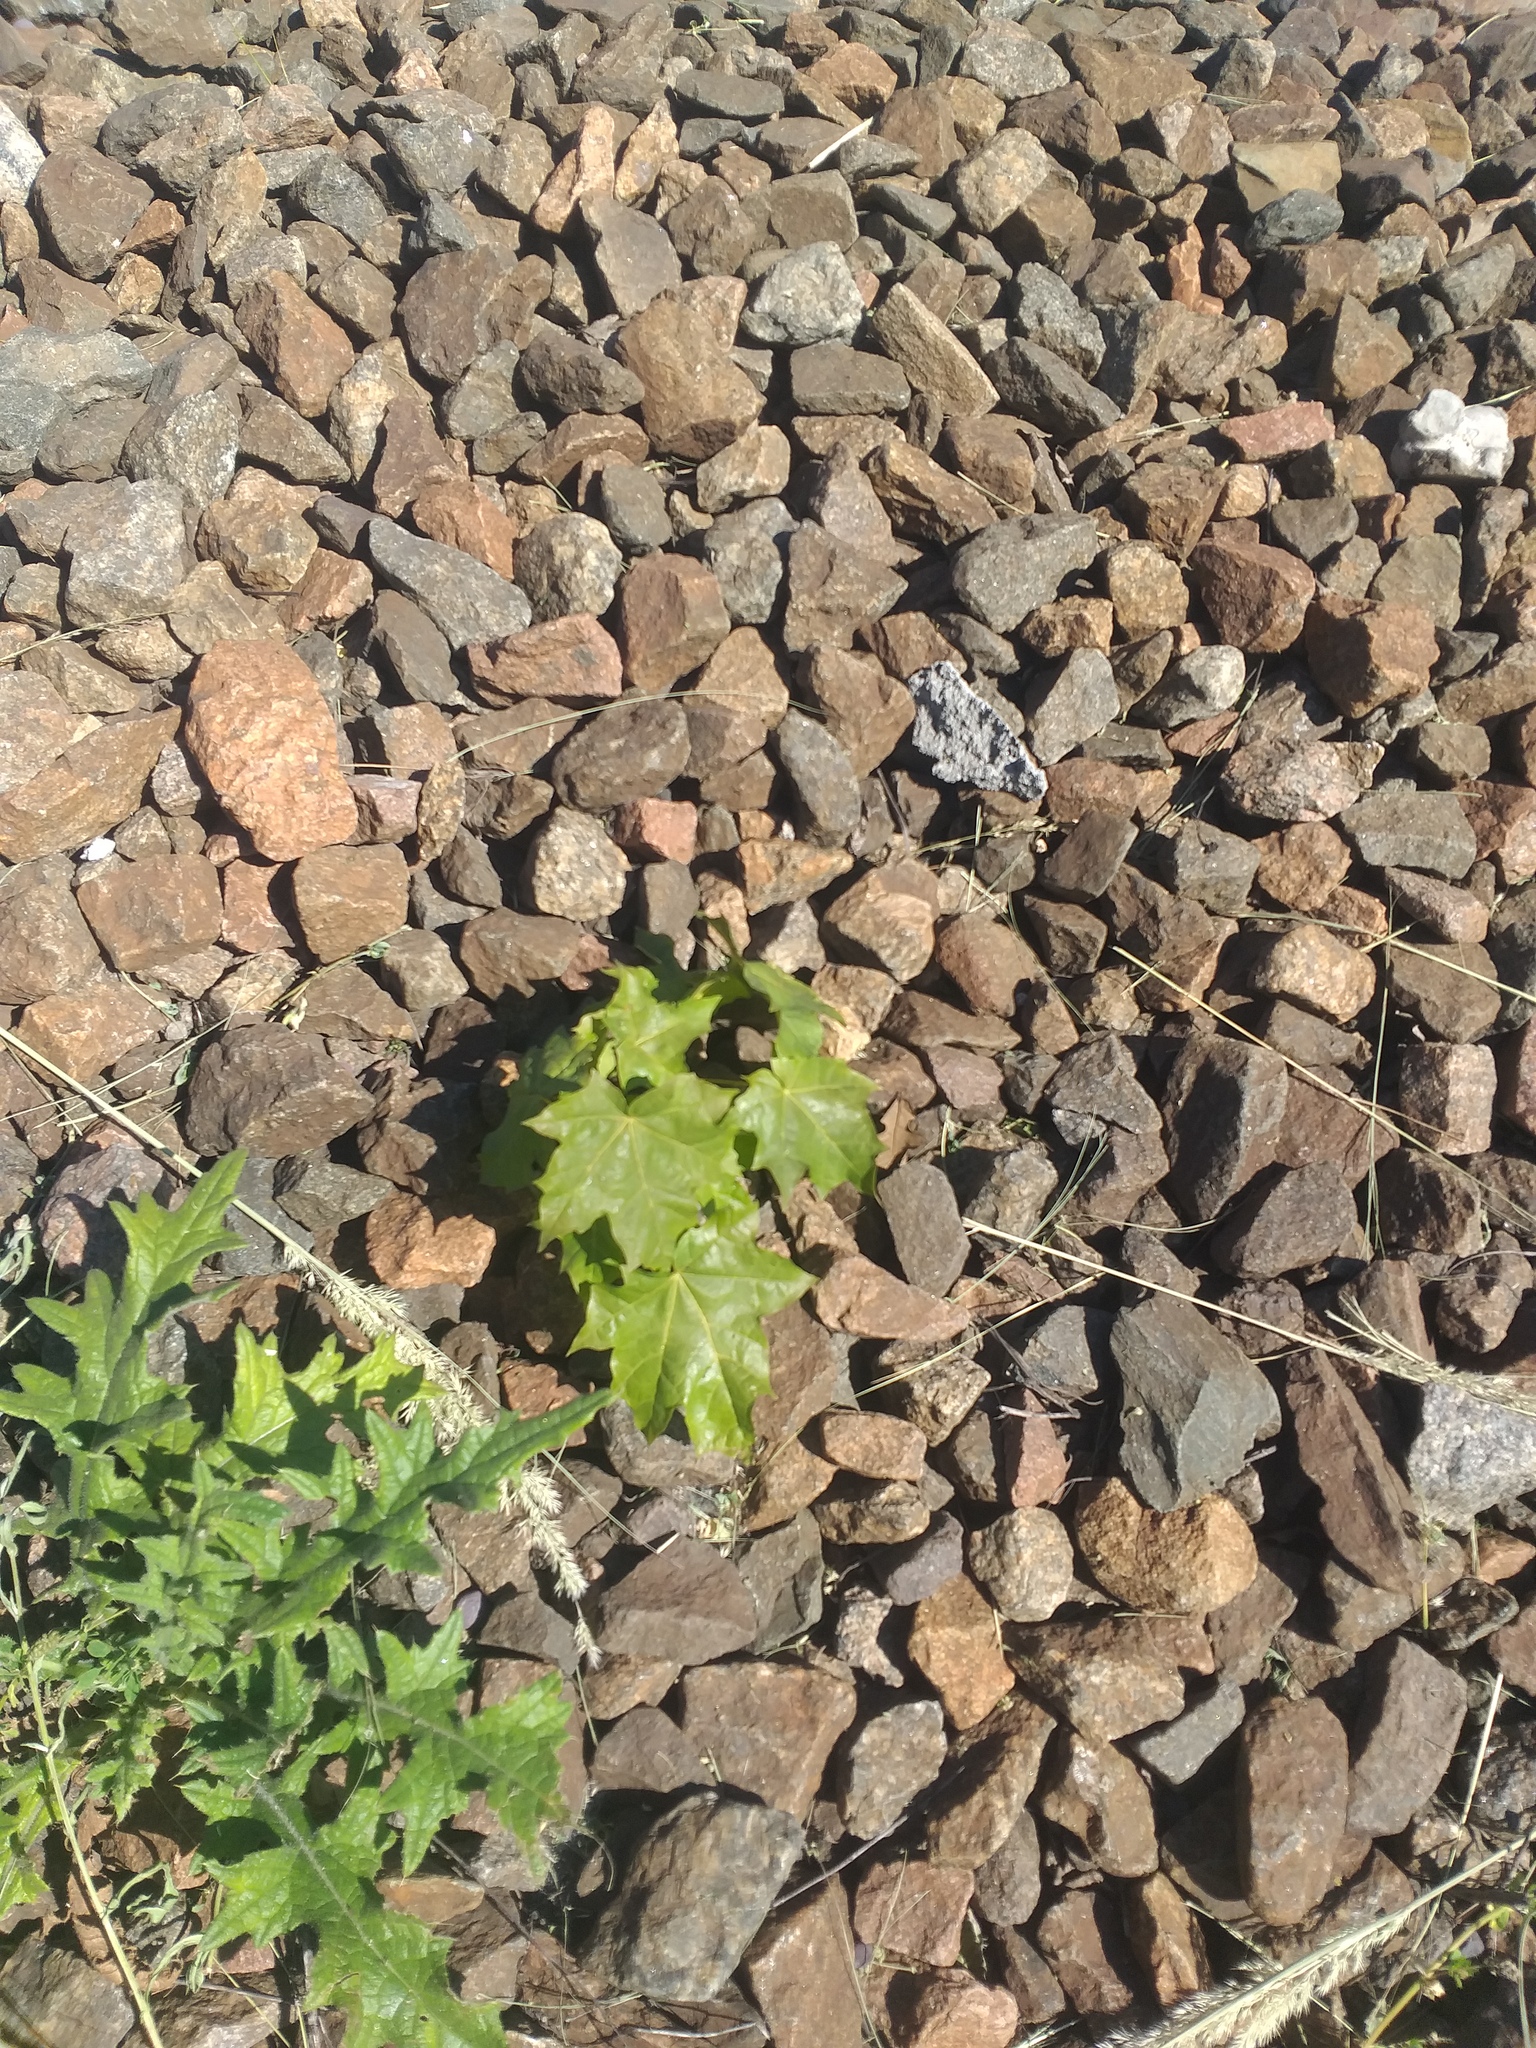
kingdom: Plantae
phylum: Tracheophyta
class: Magnoliopsida
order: Sapindales
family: Sapindaceae
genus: Acer
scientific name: Acer platanoides
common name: Norway maple
